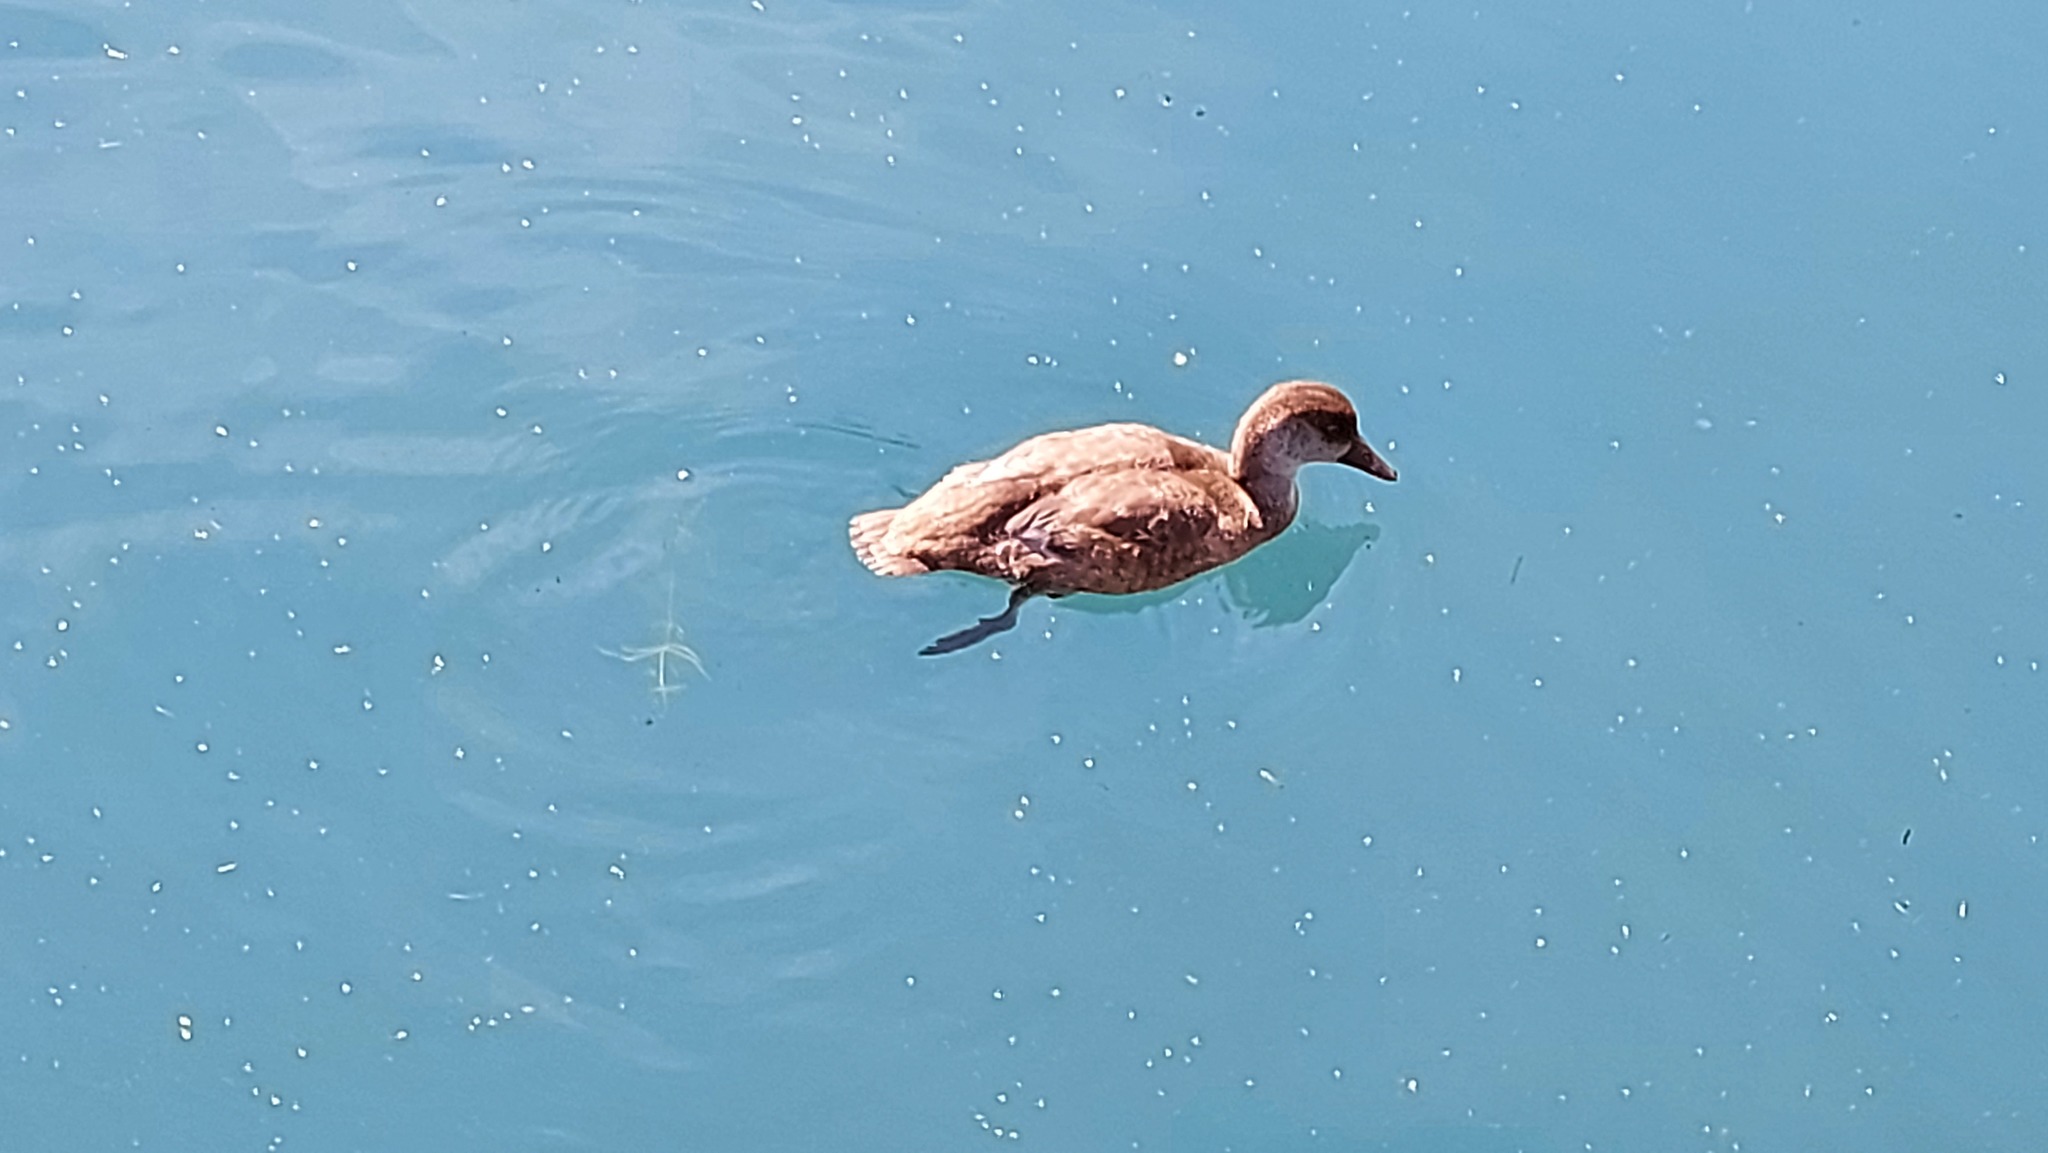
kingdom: Animalia
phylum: Chordata
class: Aves
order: Anseriformes
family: Anatidae
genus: Netta
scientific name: Netta rufina
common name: Red-crested pochard
